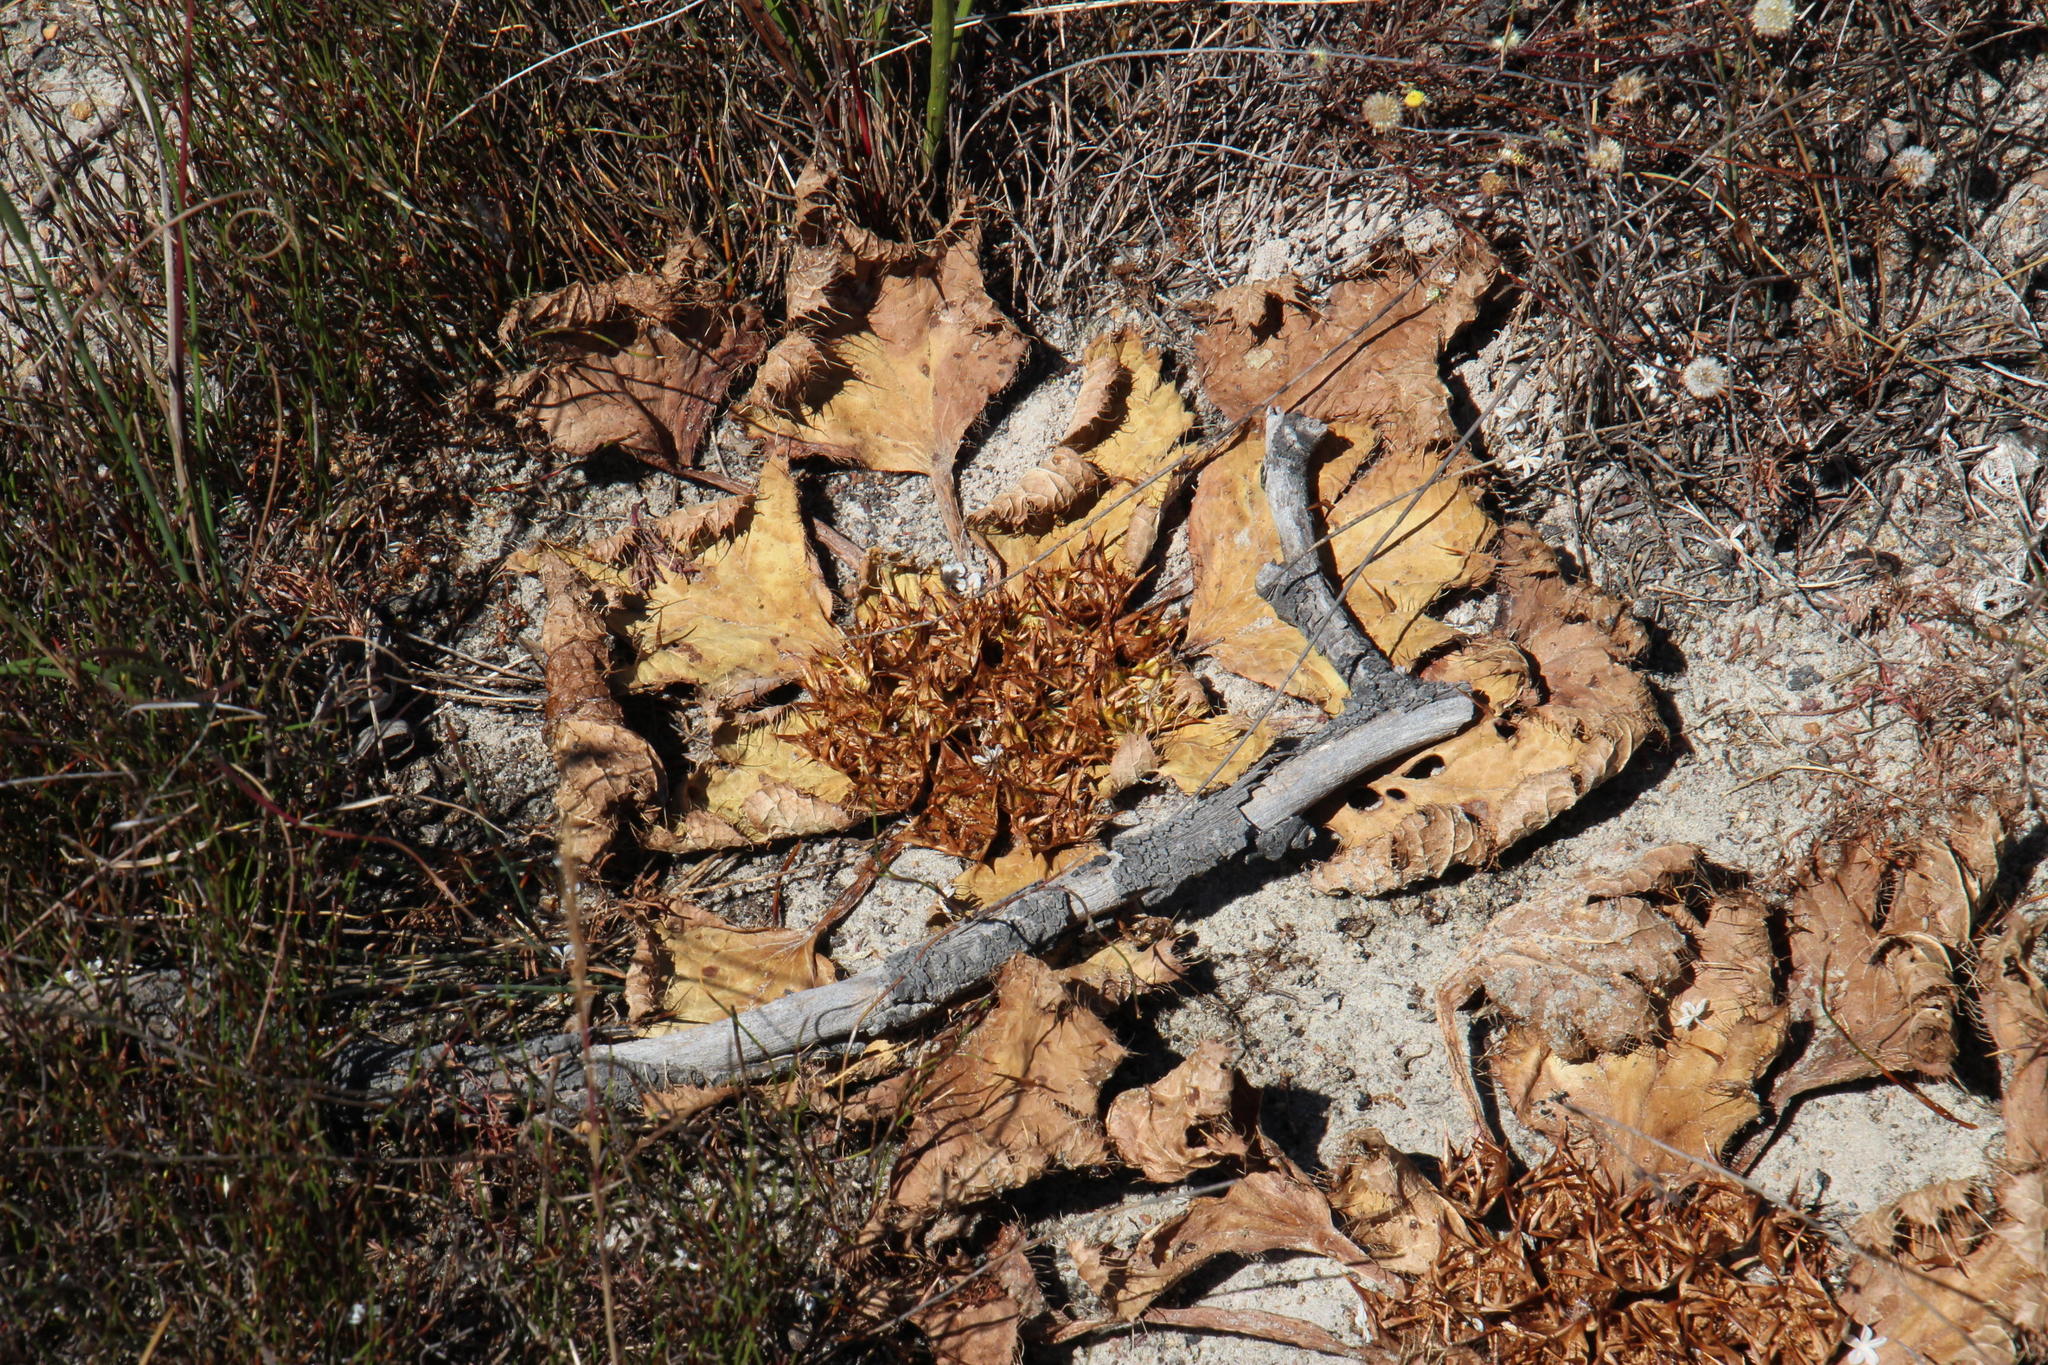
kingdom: Plantae
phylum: Tracheophyta
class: Magnoliopsida
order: Apiales
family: Apiaceae
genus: Arctopus
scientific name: Arctopus echinatus
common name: Platdoring
